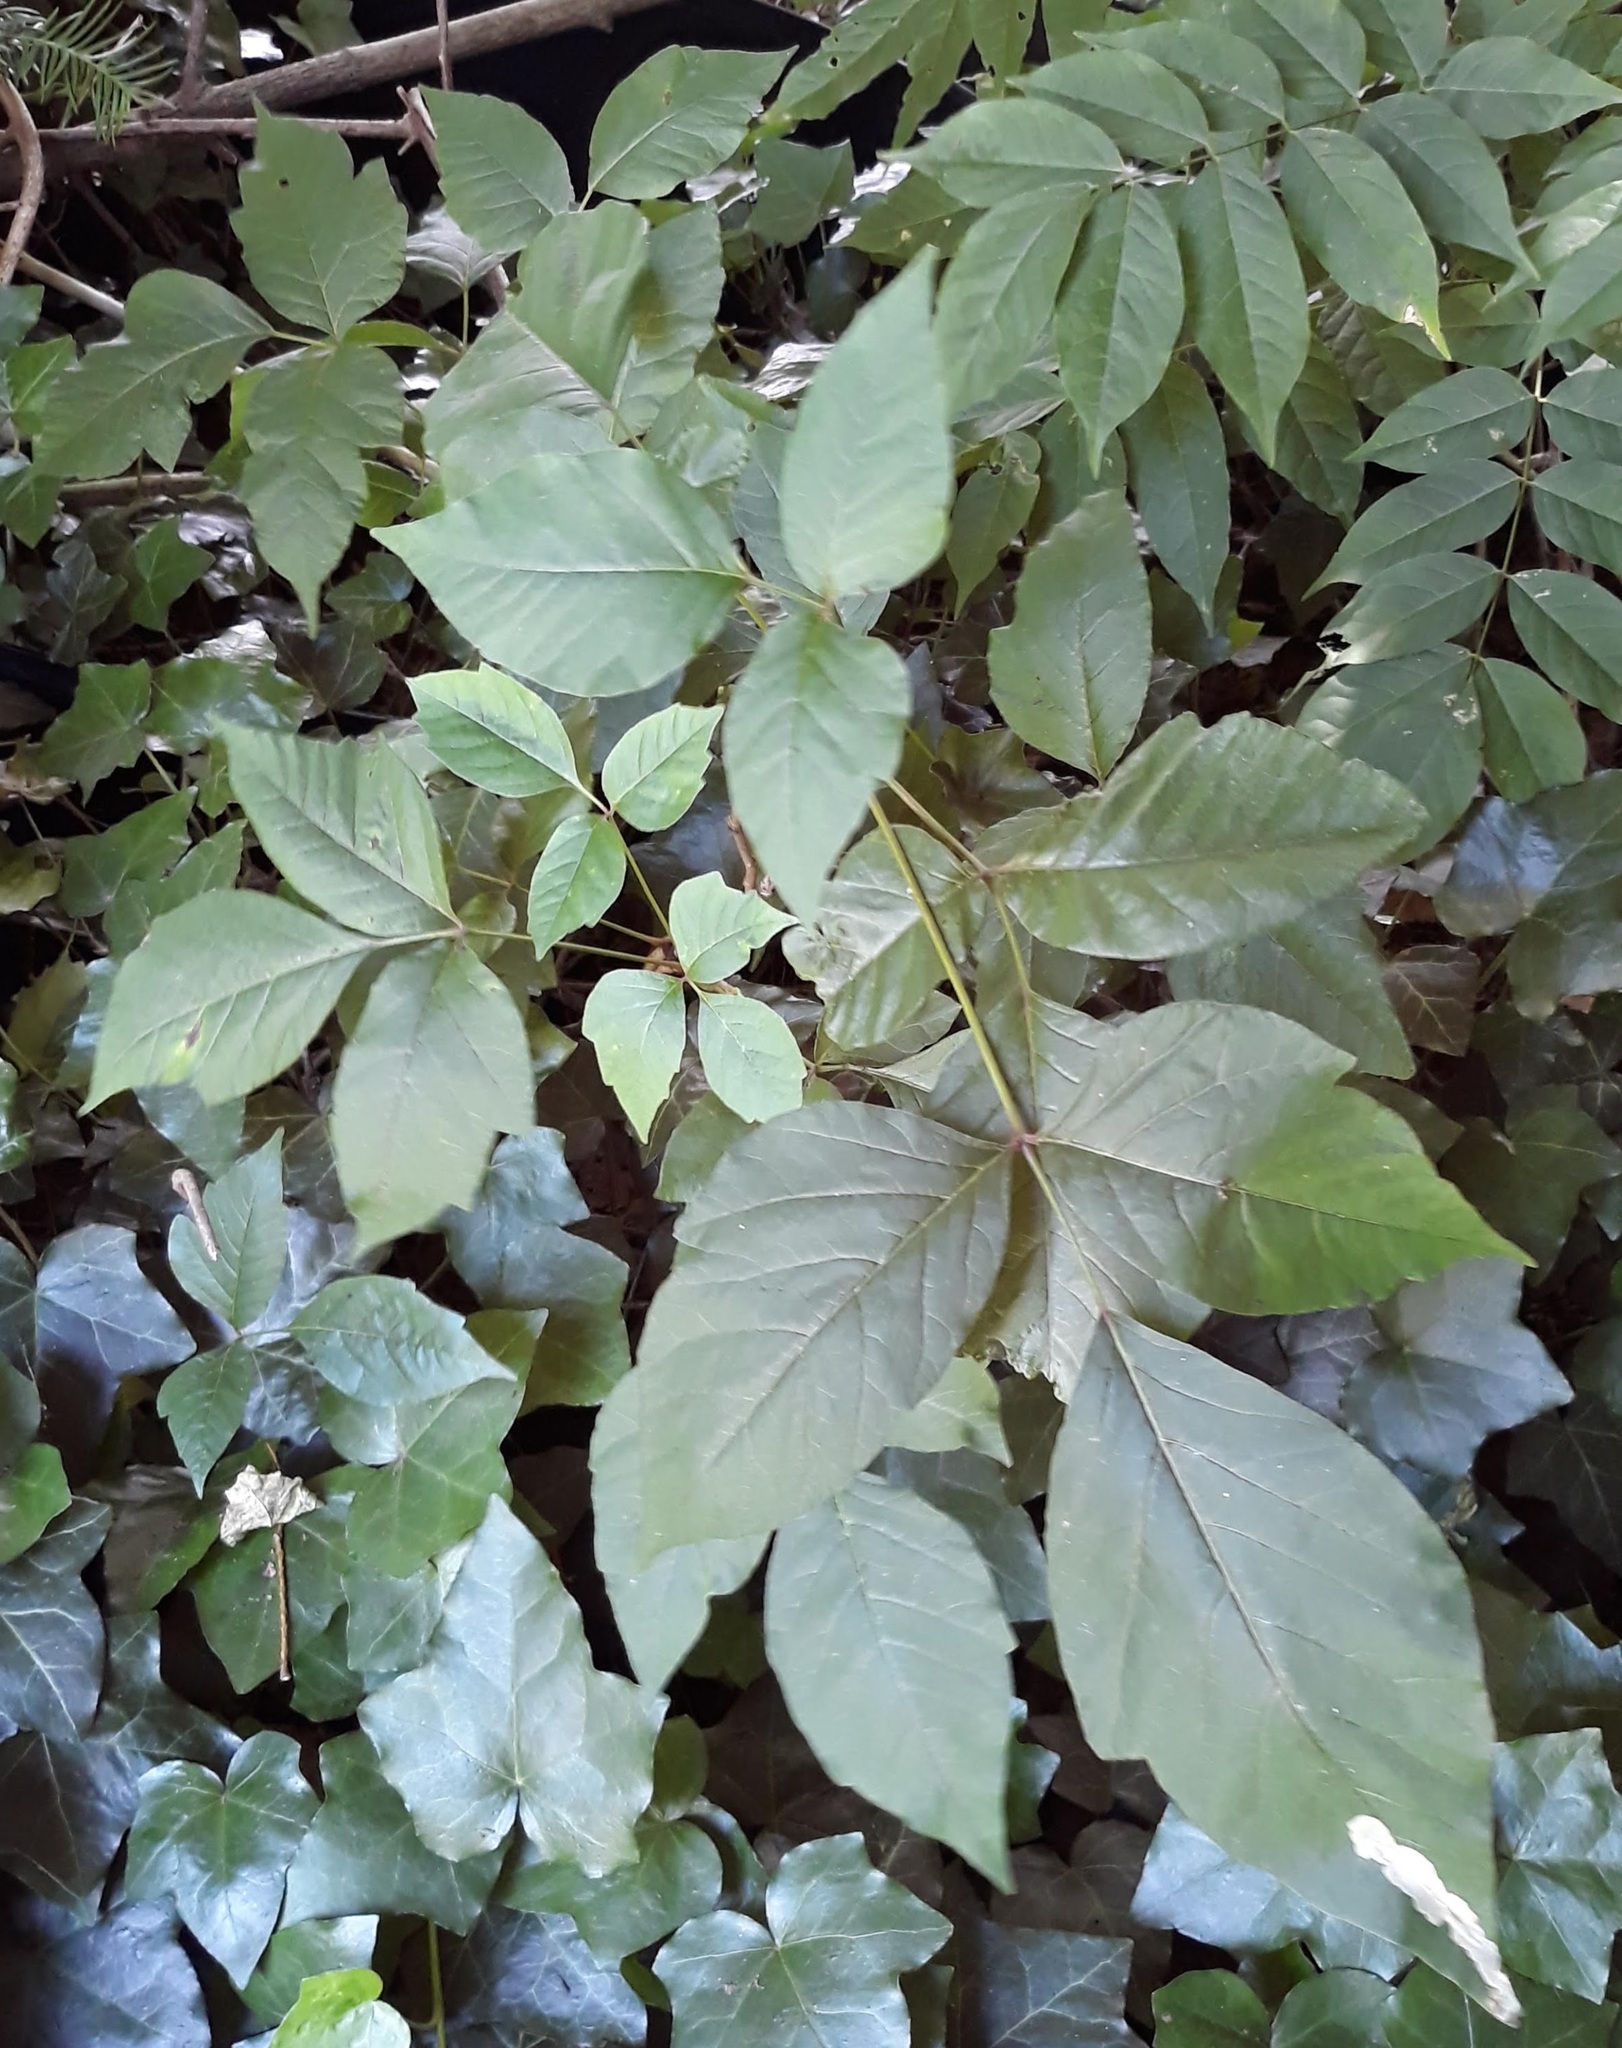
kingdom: Animalia
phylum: Arthropoda
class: Insecta
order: Lepidoptera
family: Gracillariidae
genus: Cameraria
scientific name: Cameraria guttifinitella
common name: Poison ivy leaf-miner moth
